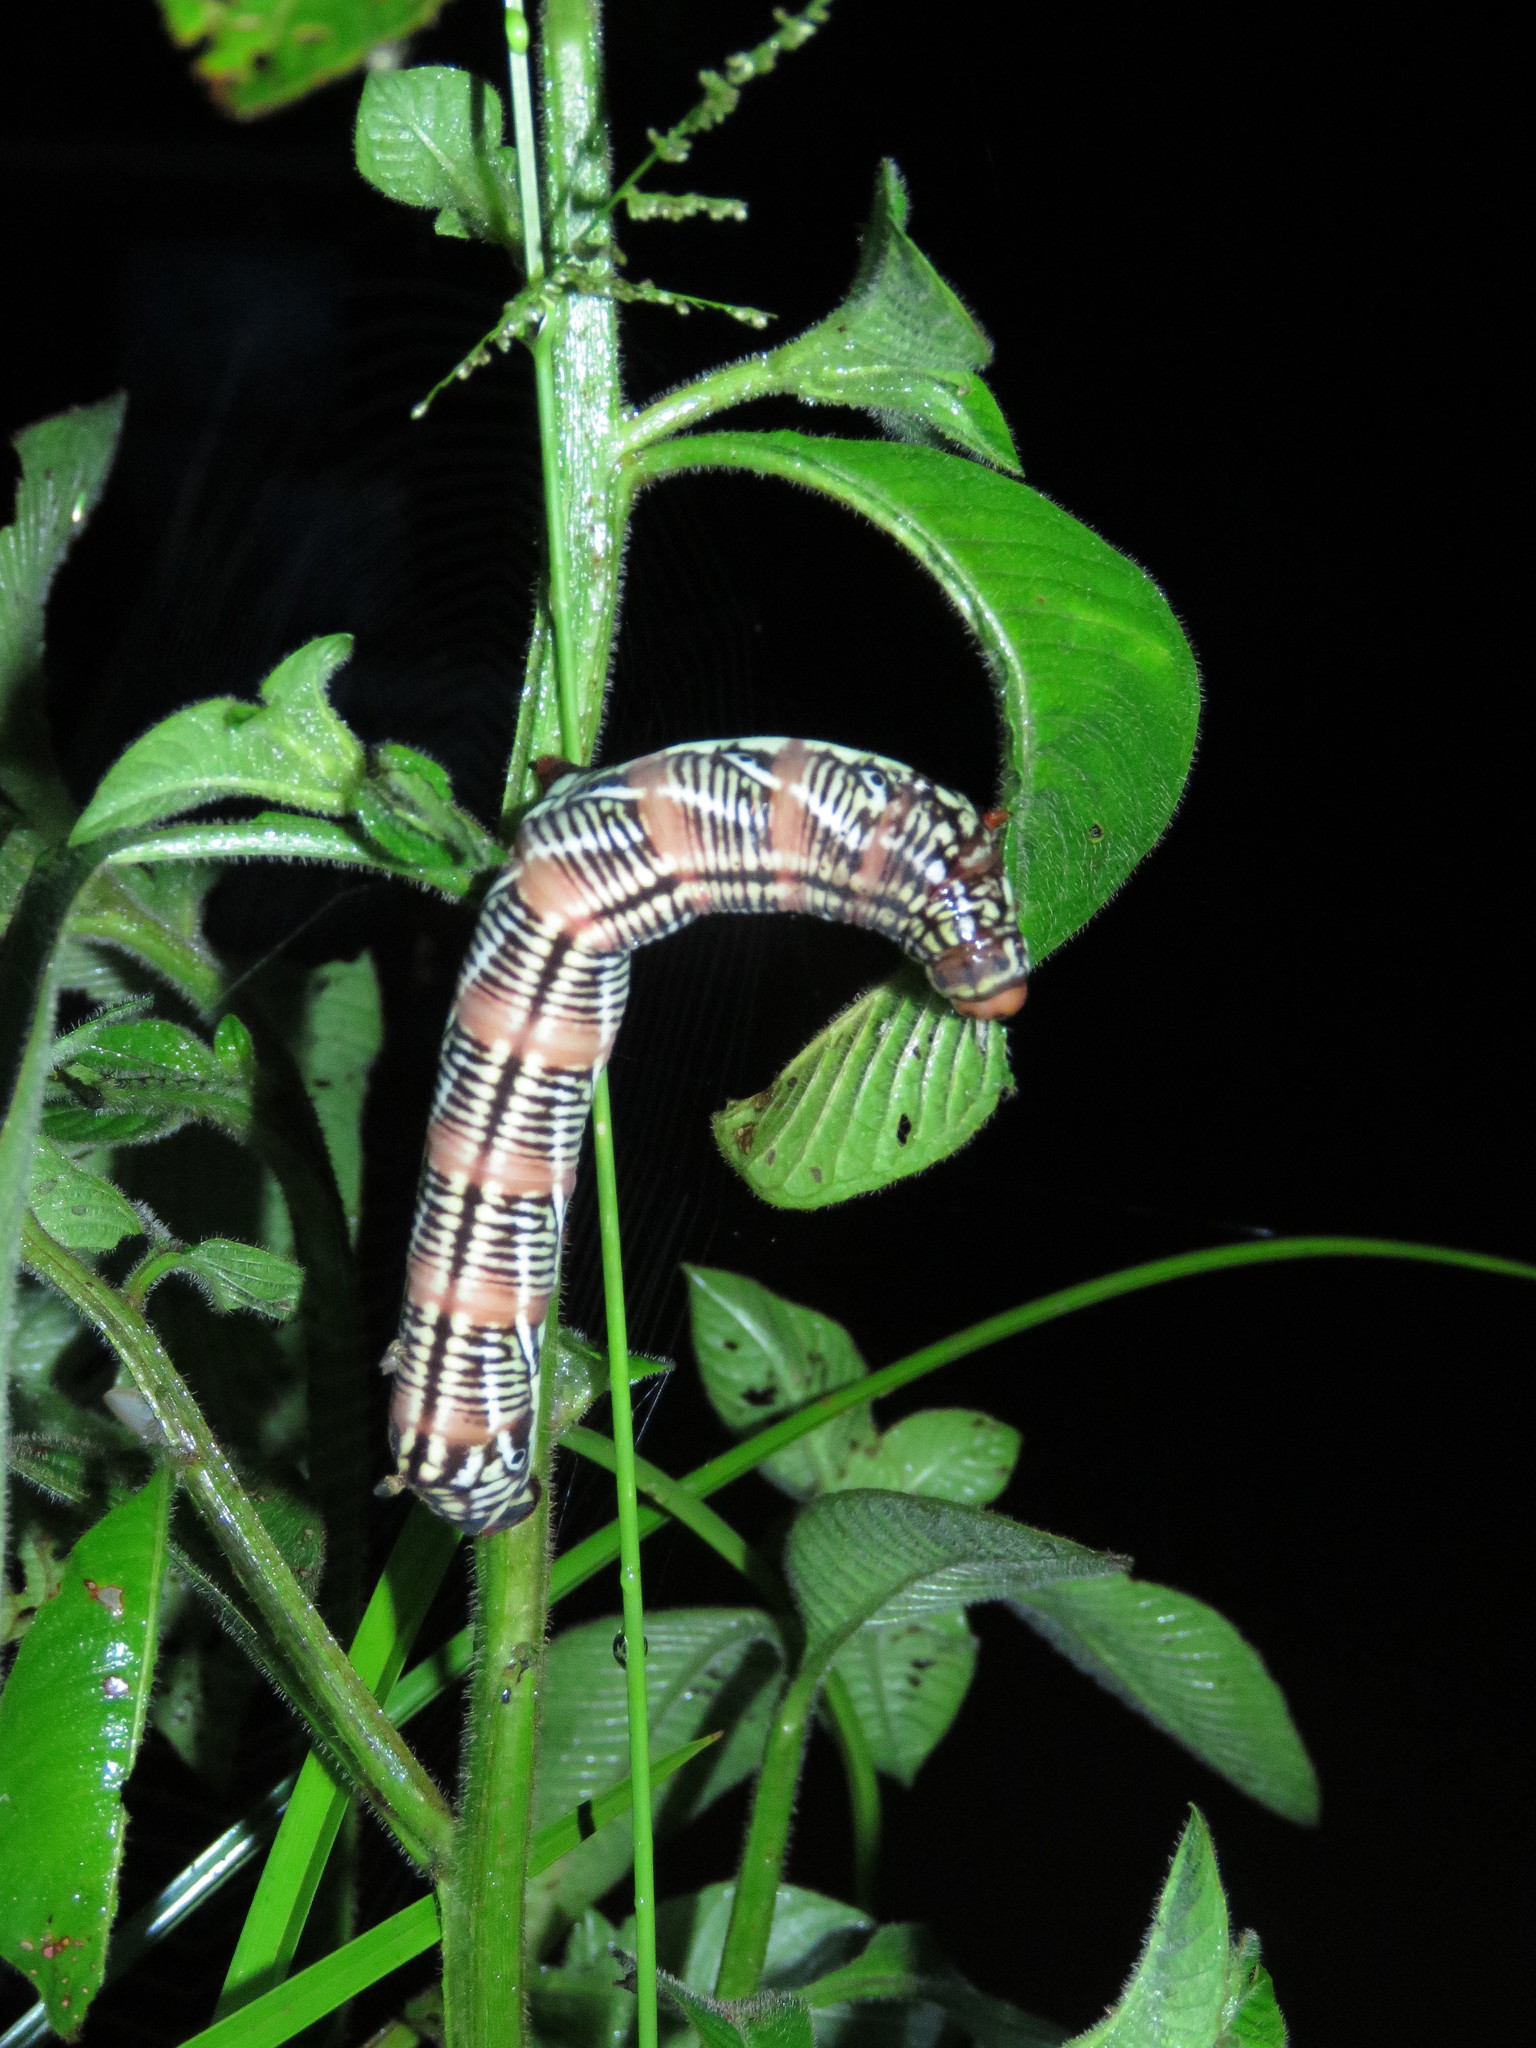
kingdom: Animalia
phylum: Arthropoda
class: Insecta
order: Lepidoptera
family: Sphingidae
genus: Eumorpha
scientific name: Eumorpha fasciatus
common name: Banded sphinx
